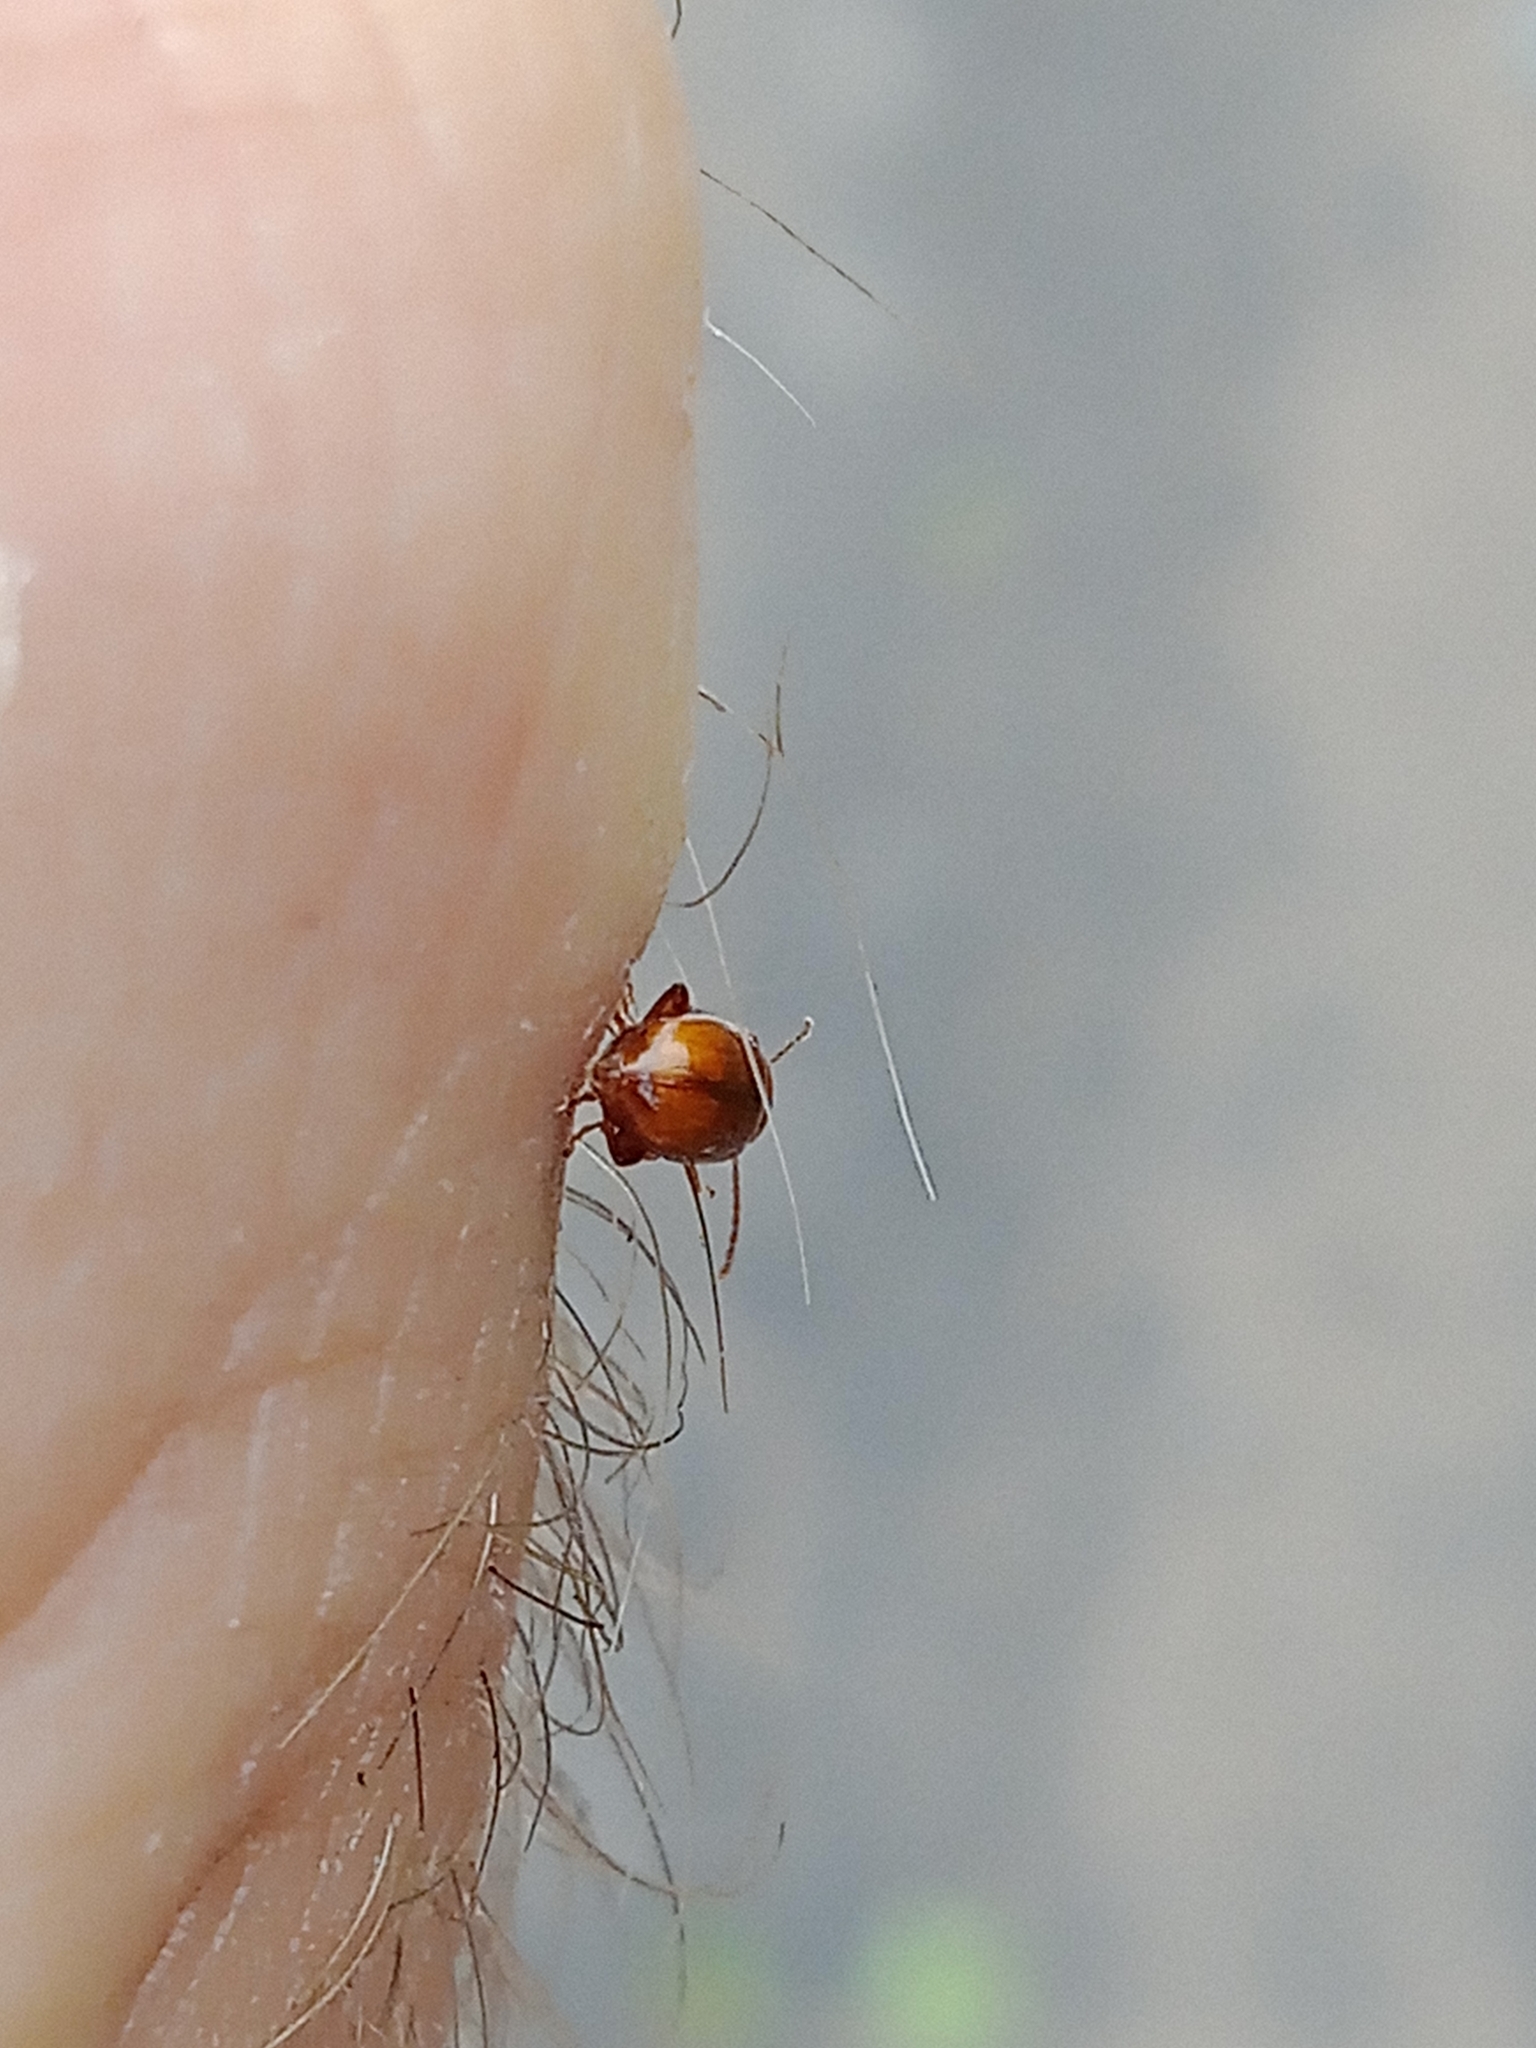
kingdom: Animalia
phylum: Arthropoda
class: Insecta
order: Coleoptera
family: Chrysomelidae
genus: Neocrepidodera
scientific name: Neocrepidodera ferruginea
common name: Wheat flea beetle
